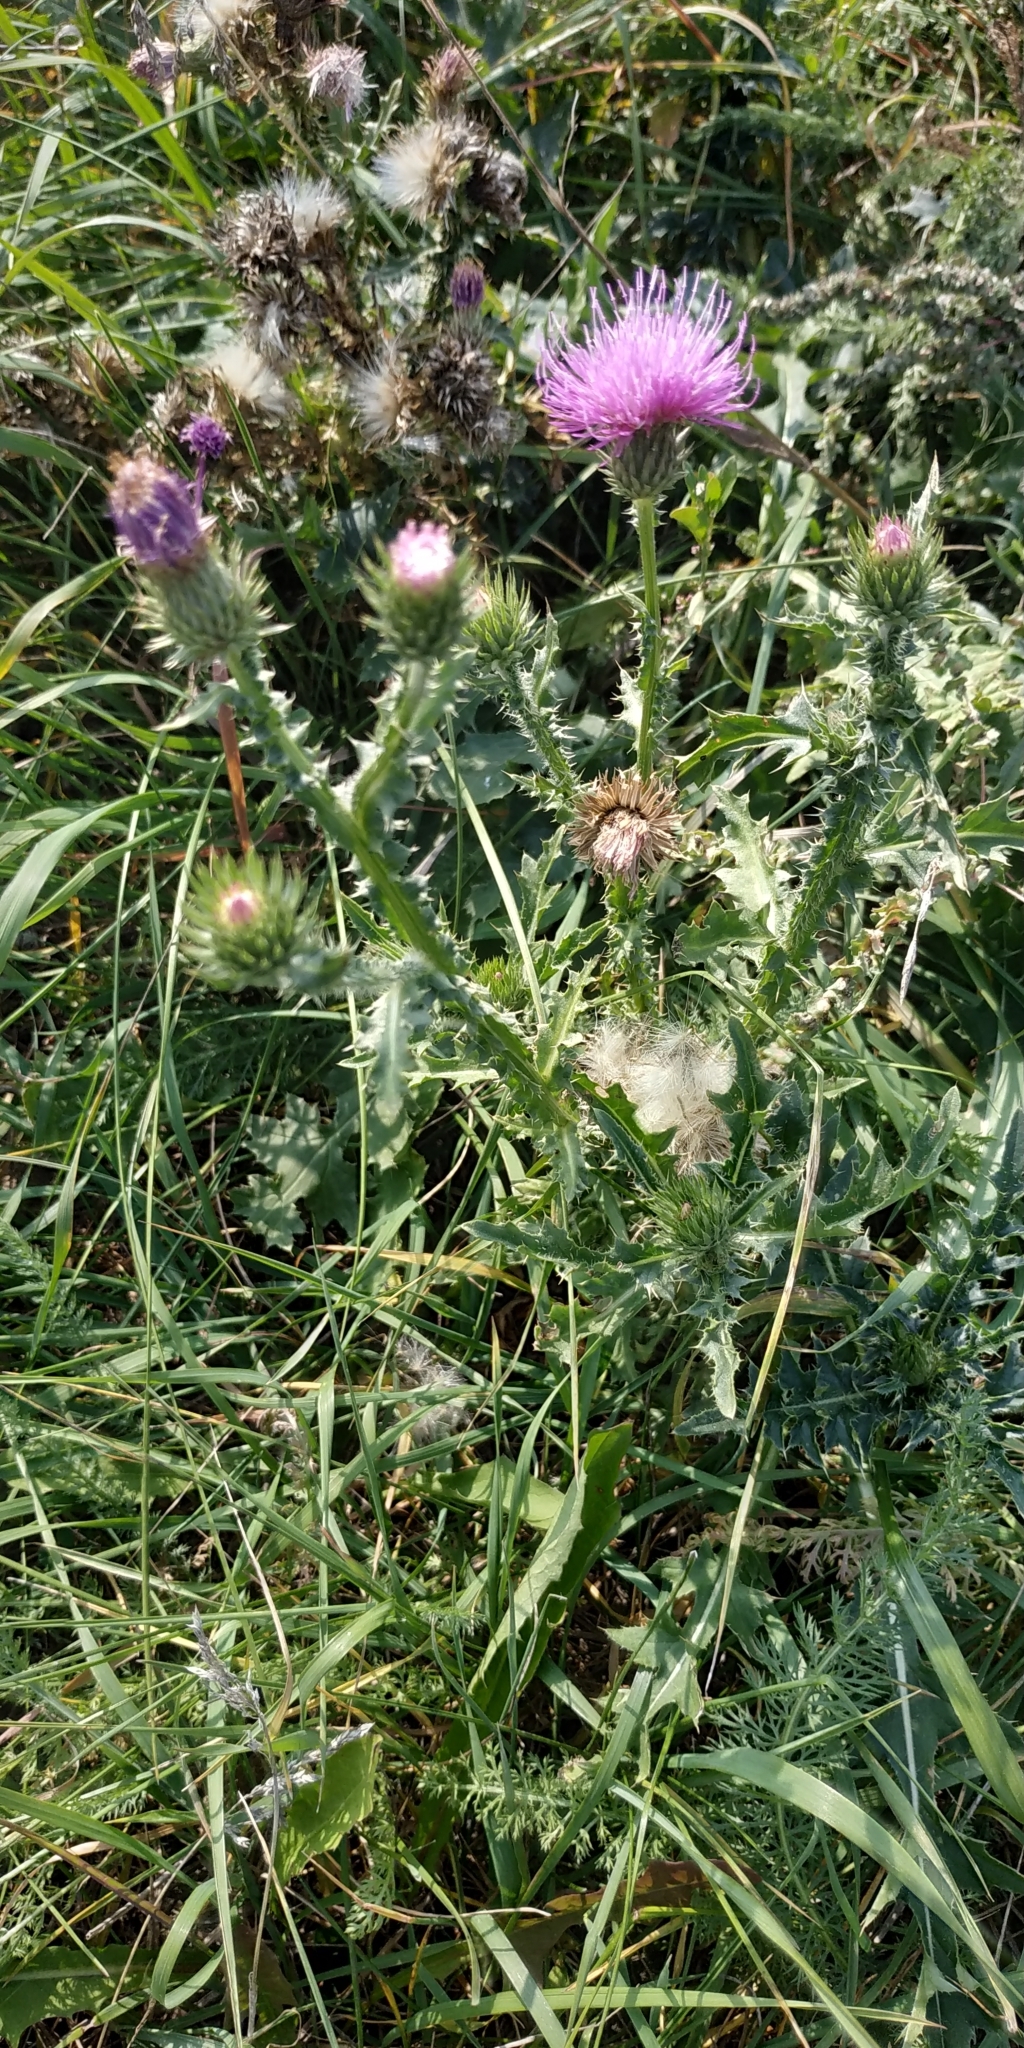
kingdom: Plantae
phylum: Tracheophyta
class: Magnoliopsida
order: Asterales
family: Asteraceae
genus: Carduus
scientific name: Carduus acanthoides
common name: Plumeless thistle
